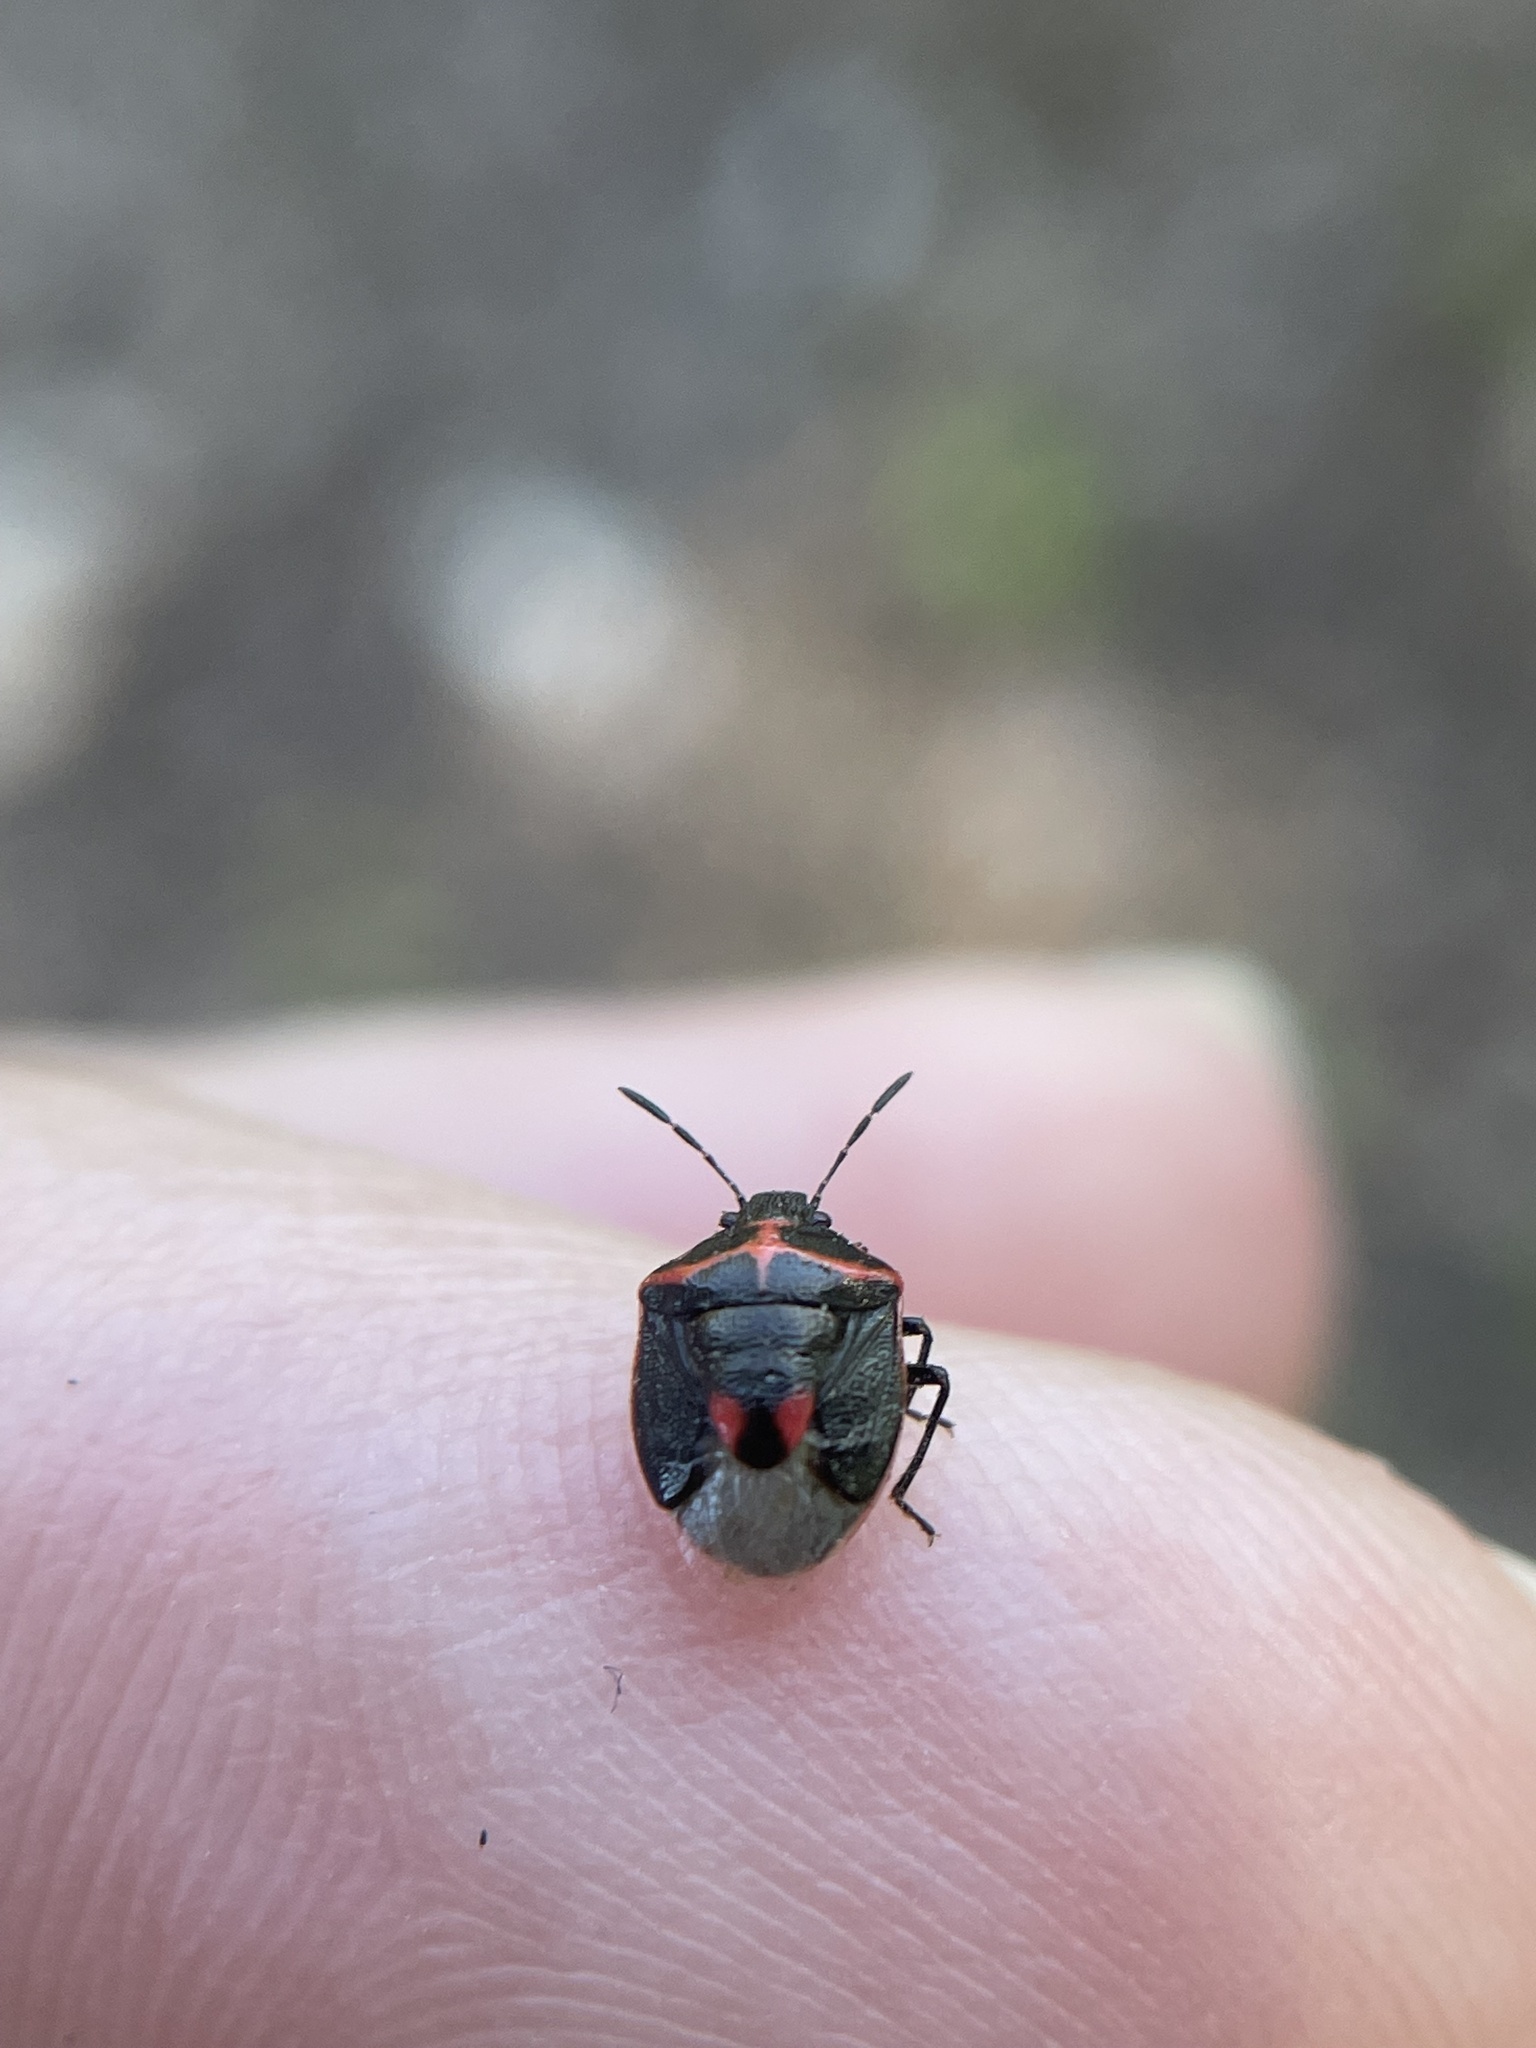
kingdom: Animalia
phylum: Arthropoda
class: Insecta
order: Hemiptera
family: Pentatomidae
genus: Cosmopepla
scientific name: Cosmopepla lintneriana
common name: Twice-stabbed stink bug
